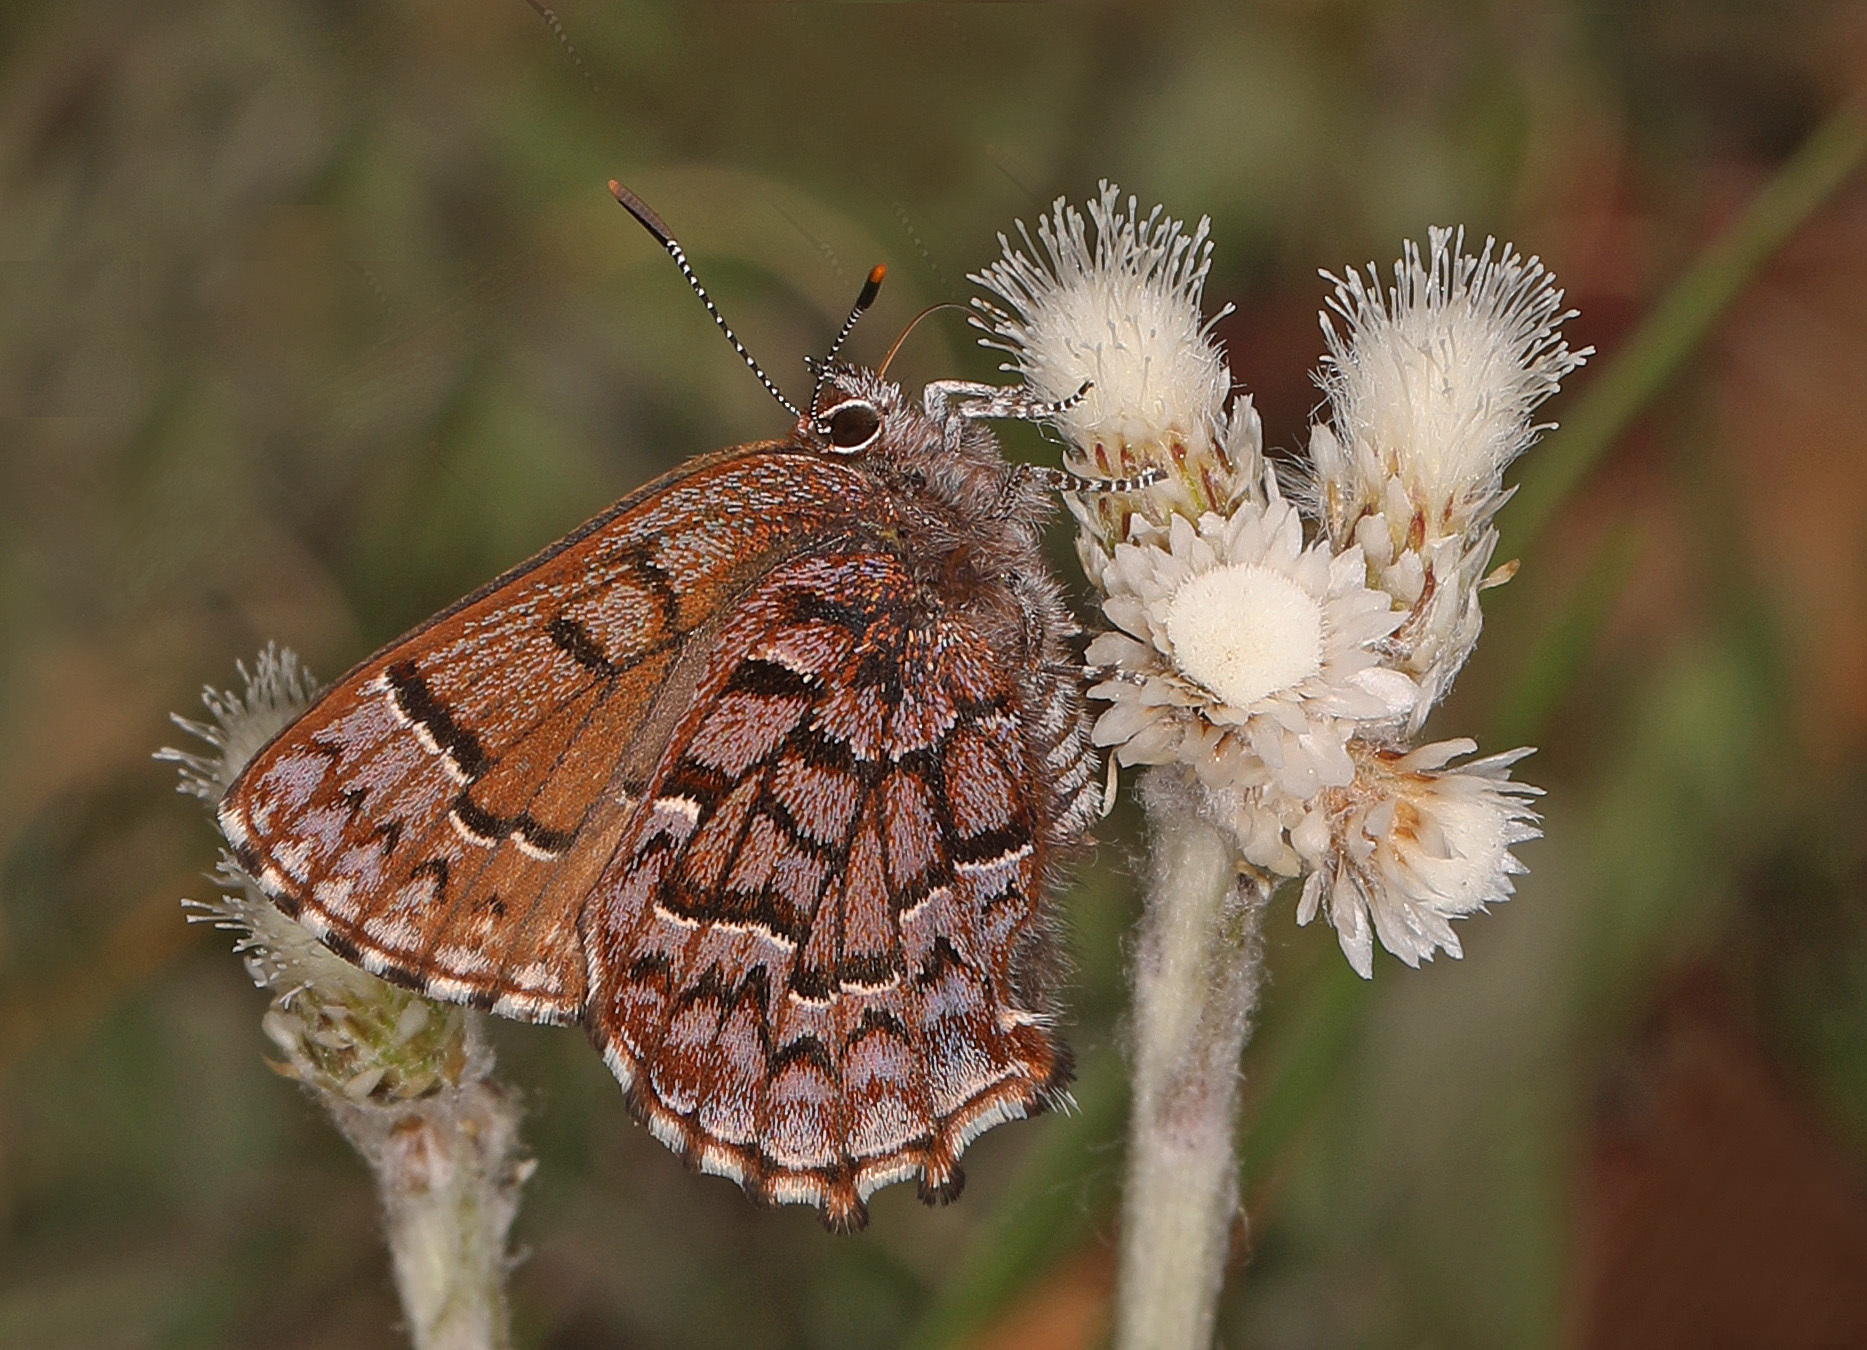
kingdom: Animalia
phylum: Arthropoda
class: Insecta
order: Lepidoptera
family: Lycaenidae
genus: Incisalia
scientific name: Incisalia niphon
